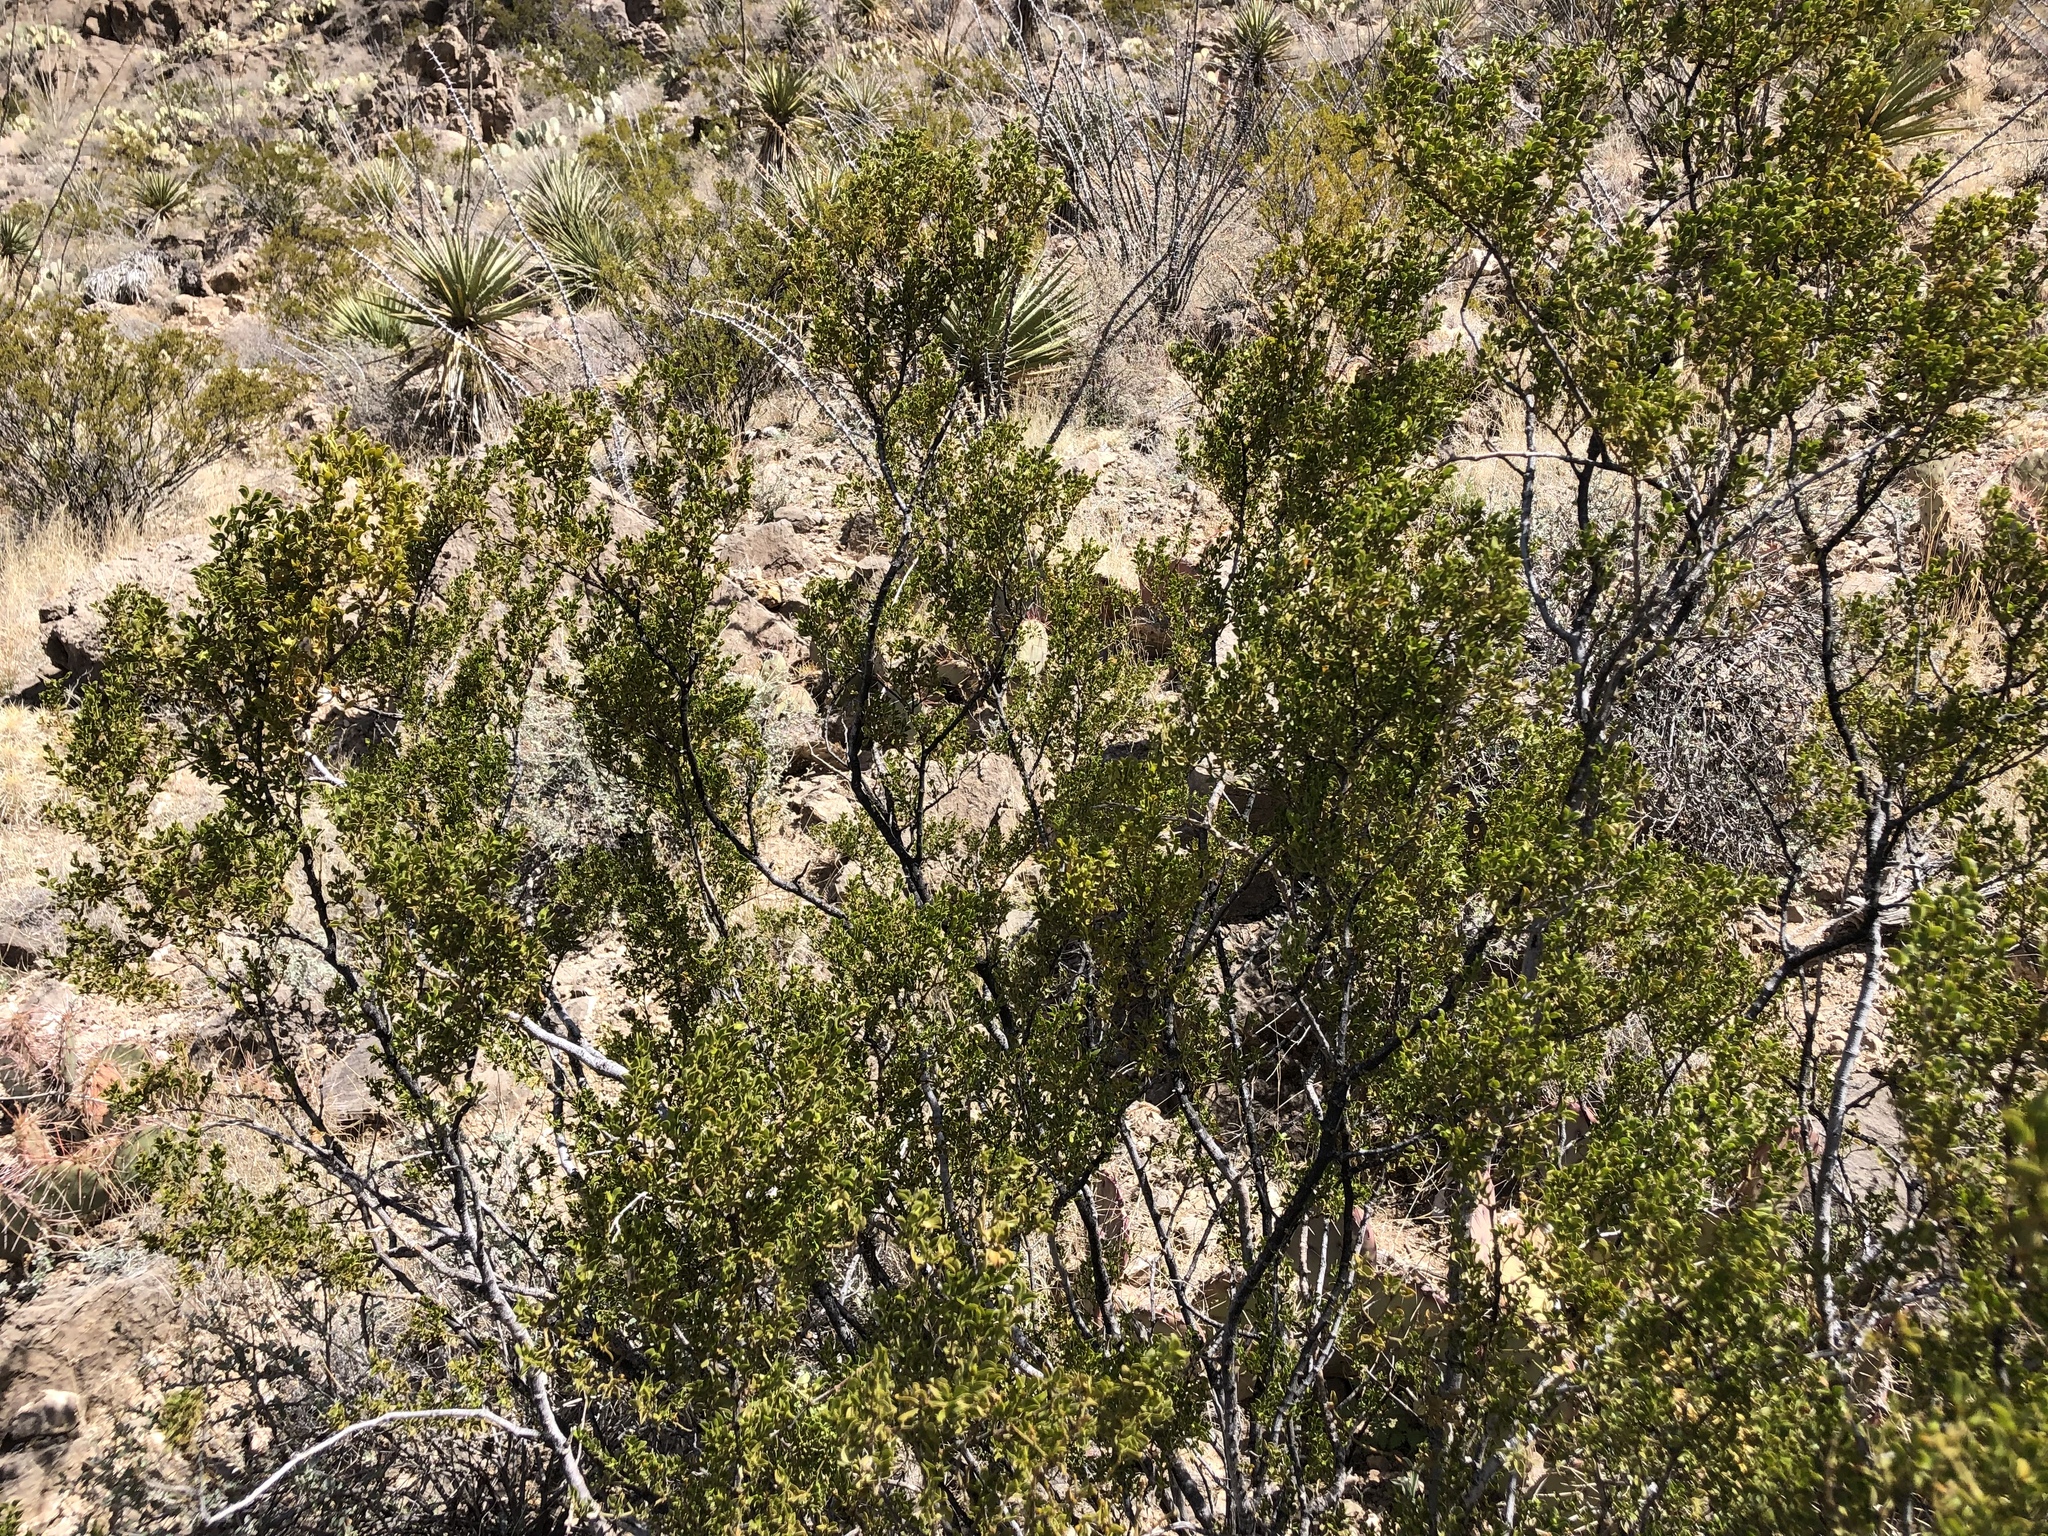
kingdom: Plantae
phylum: Tracheophyta
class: Magnoliopsida
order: Zygophyllales
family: Zygophyllaceae
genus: Larrea
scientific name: Larrea tridentata
